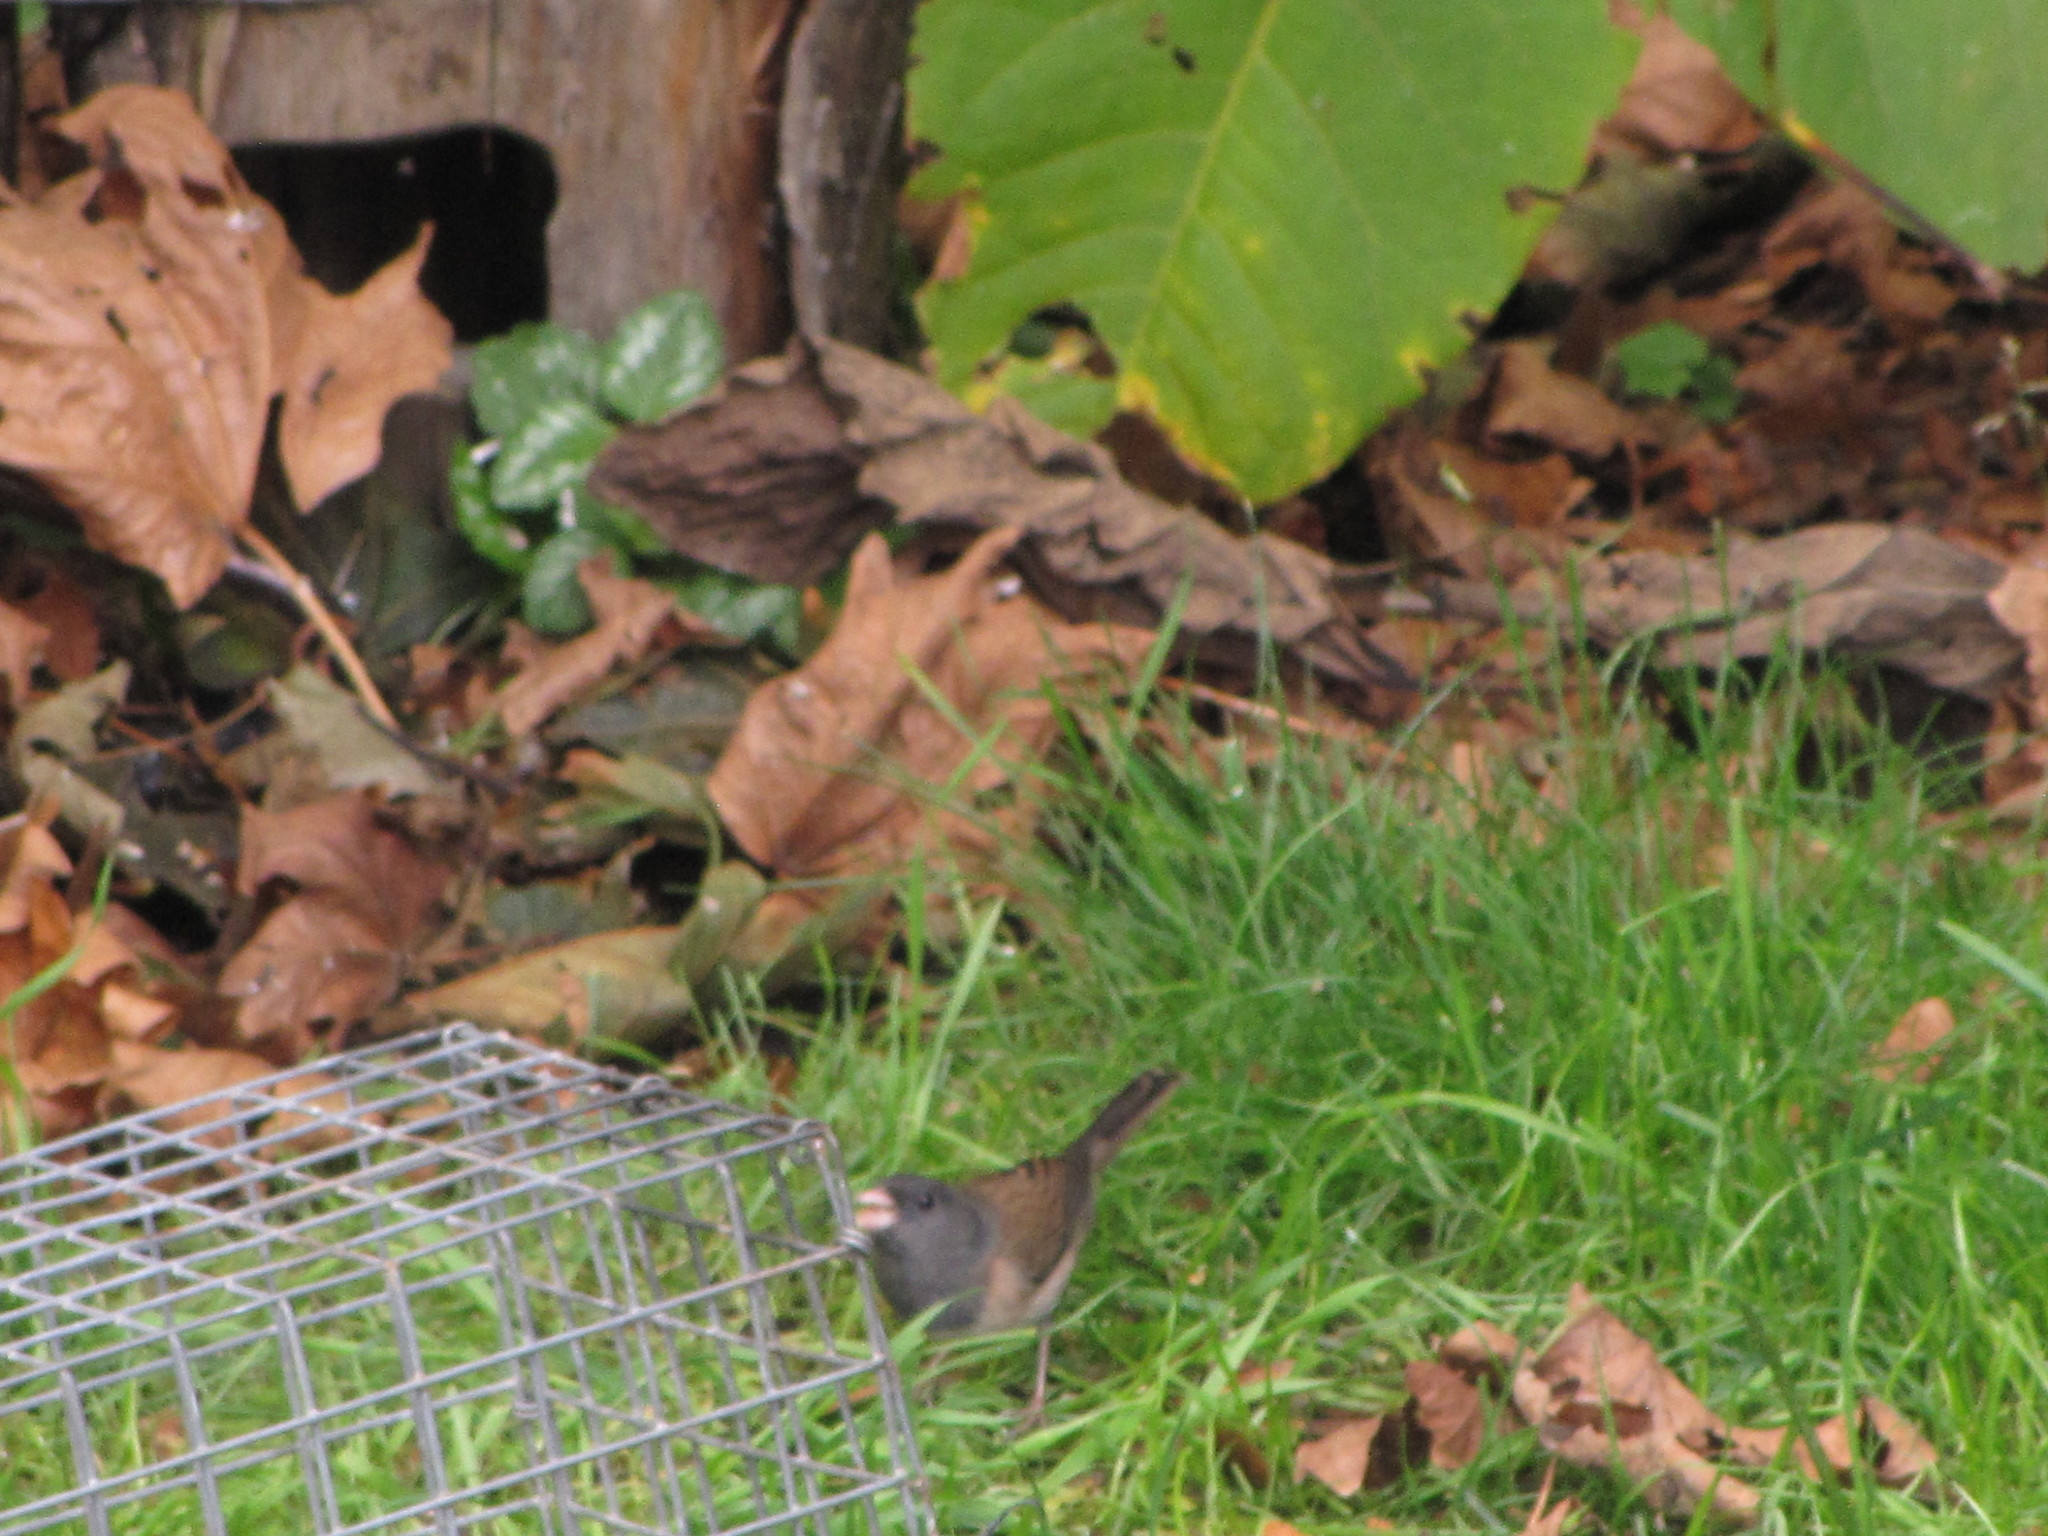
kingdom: Animalia
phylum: Chordata
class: Aves
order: Passeriformes
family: Passerellidae
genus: Junco
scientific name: Junco hyemalis
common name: Dark-eyed junco
